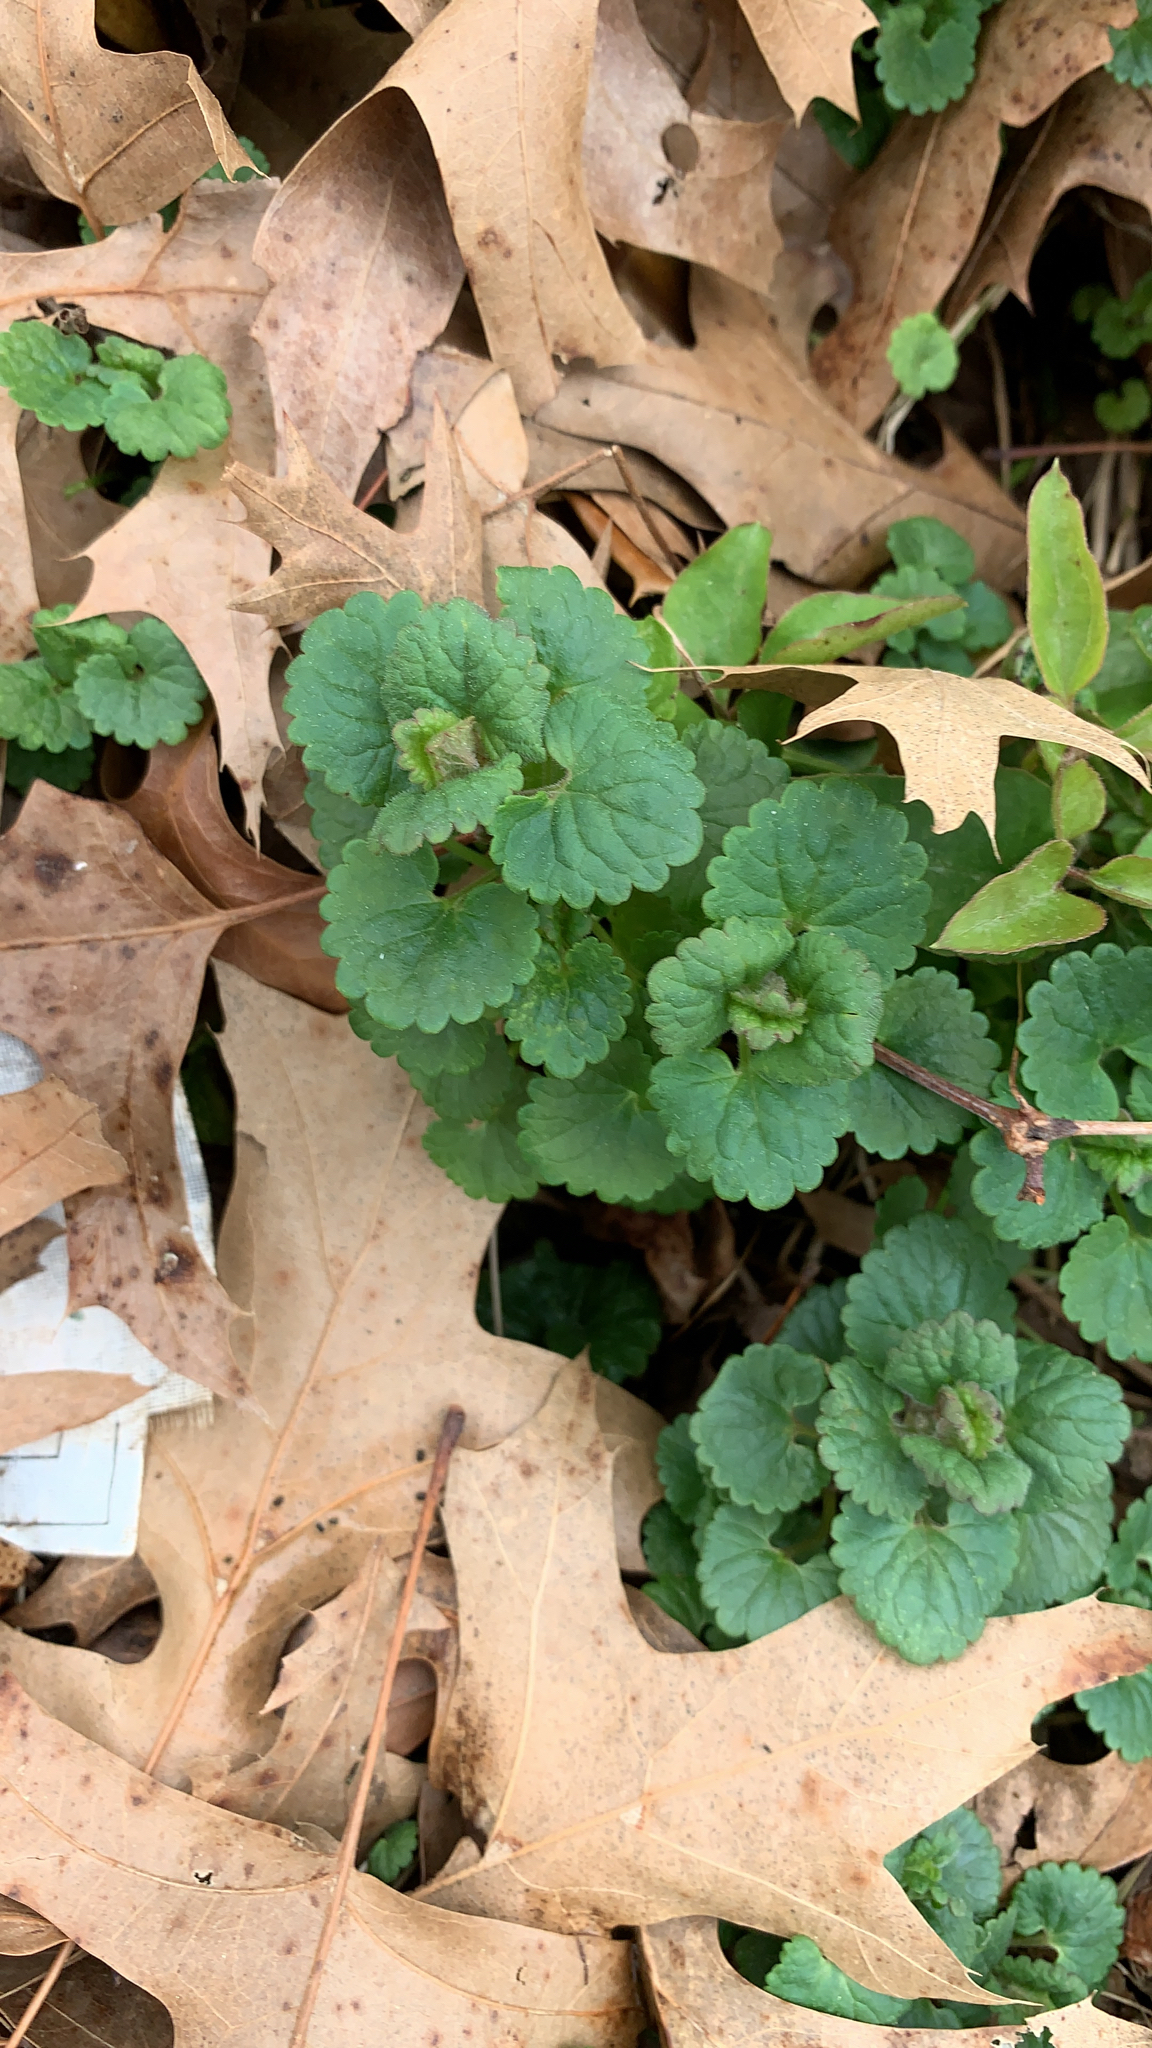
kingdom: Plantae
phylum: Tracheophyta
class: Magnoliopsida
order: Lamiales
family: Lamiaceae
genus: Glechoma
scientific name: Glechoma hederacea
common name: Ground ivy
